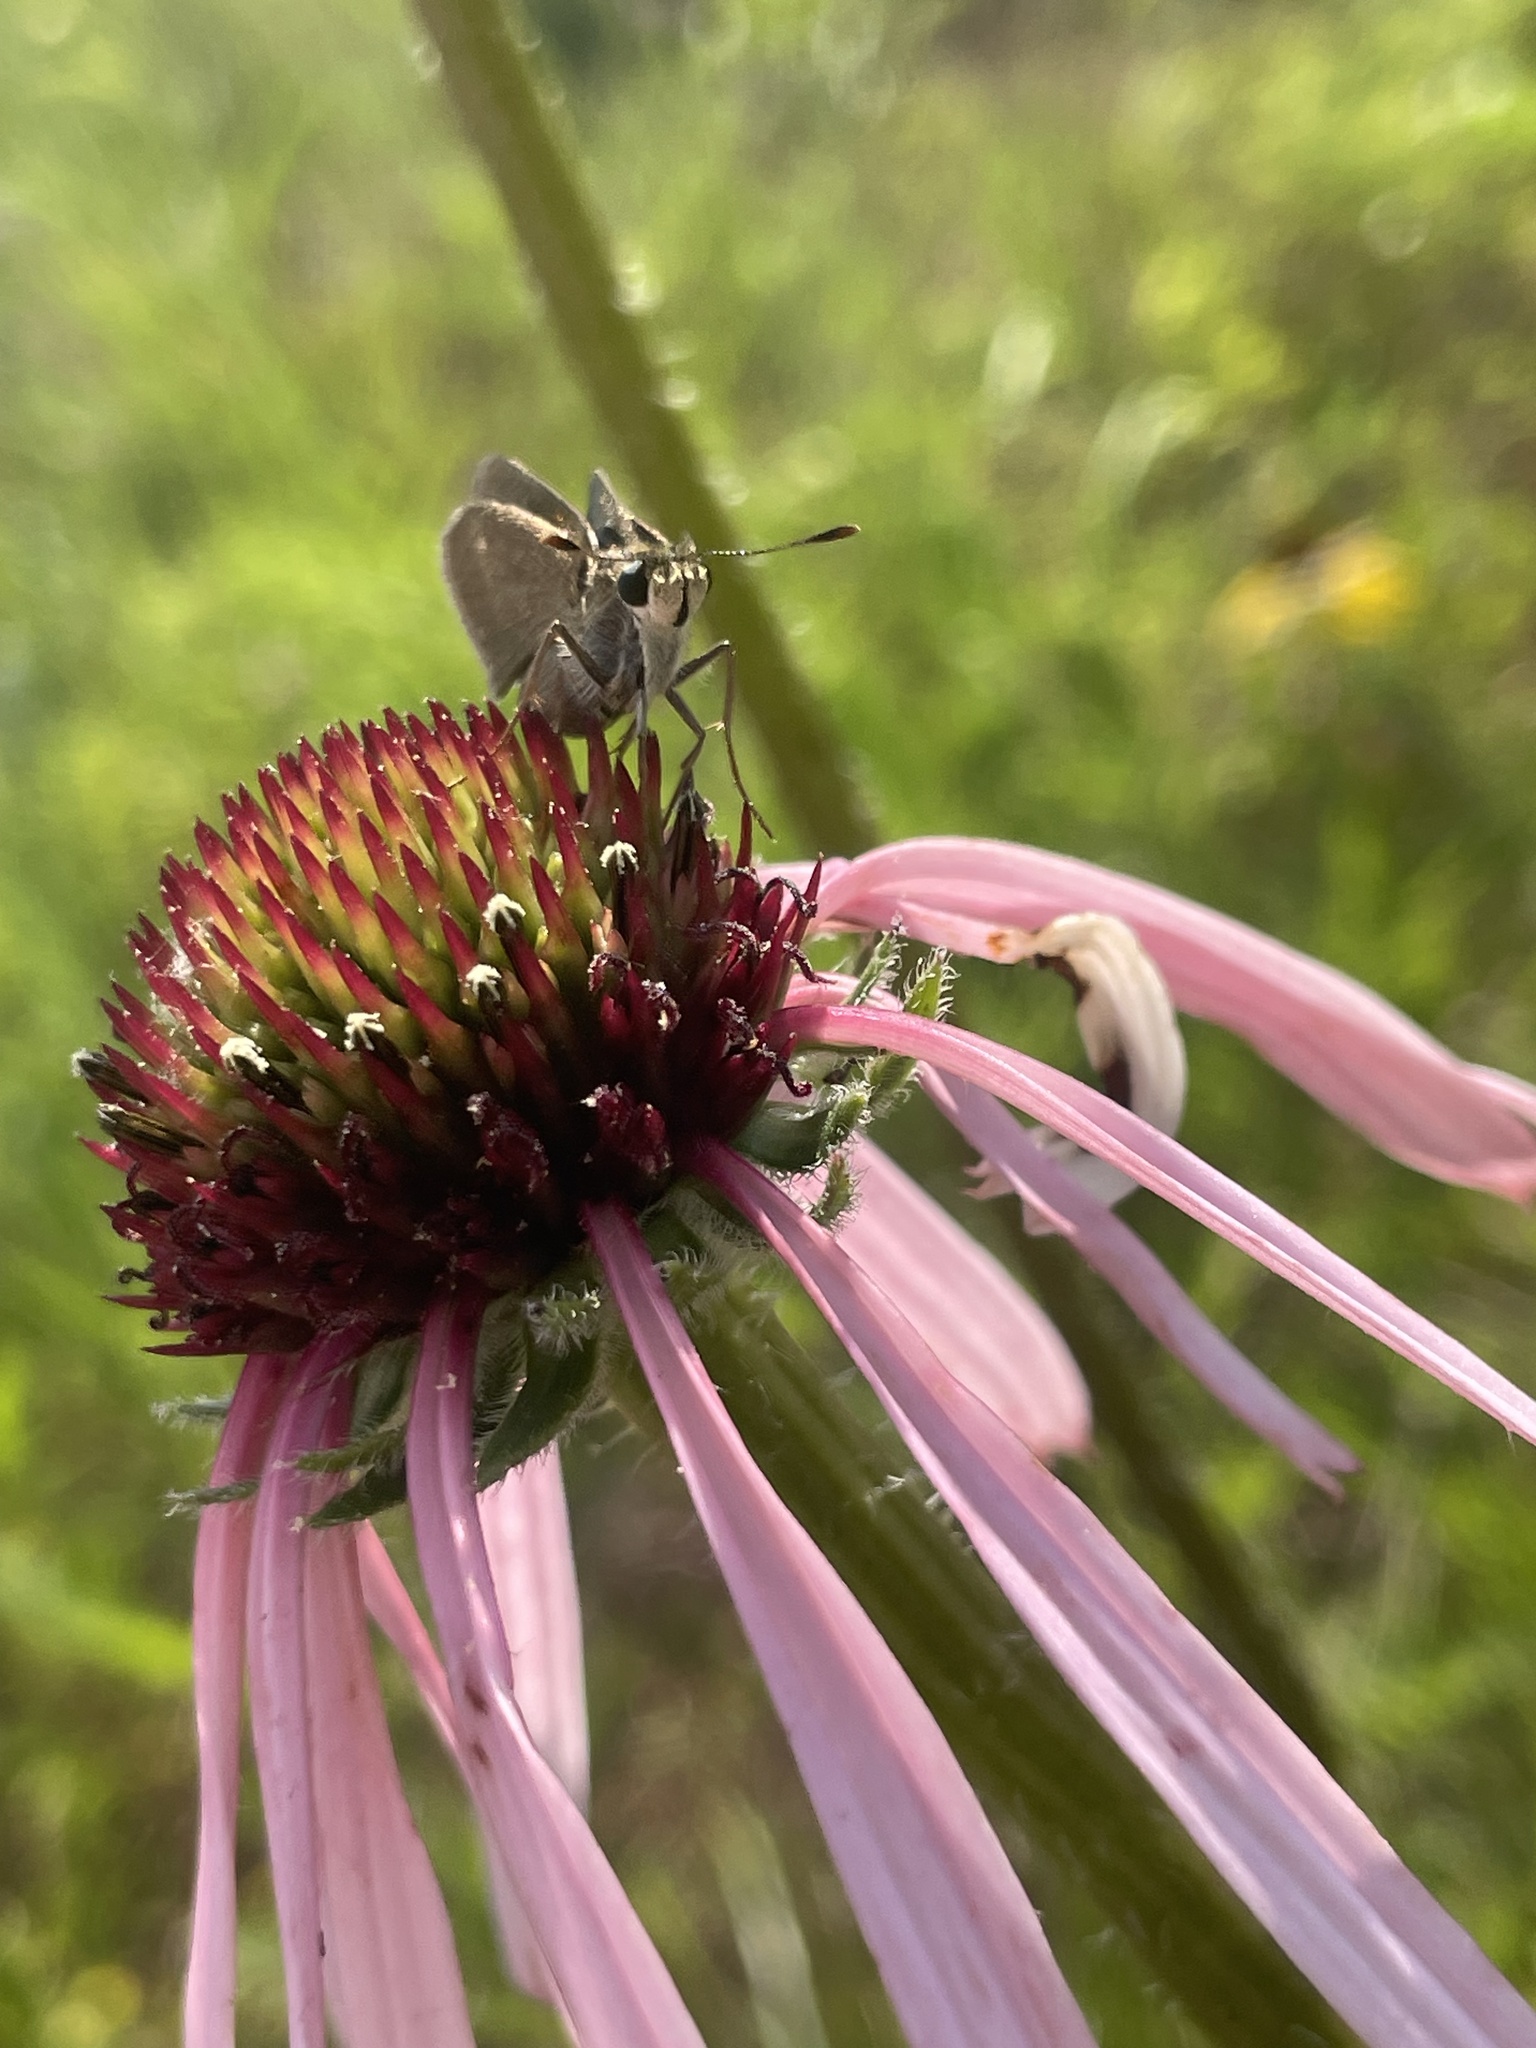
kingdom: Animalia
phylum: Arthropoda
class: Insecta
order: Lepidoptera
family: Hesperiidae
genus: Euphyes
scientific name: Euphyes vestris
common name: Dun skipper
